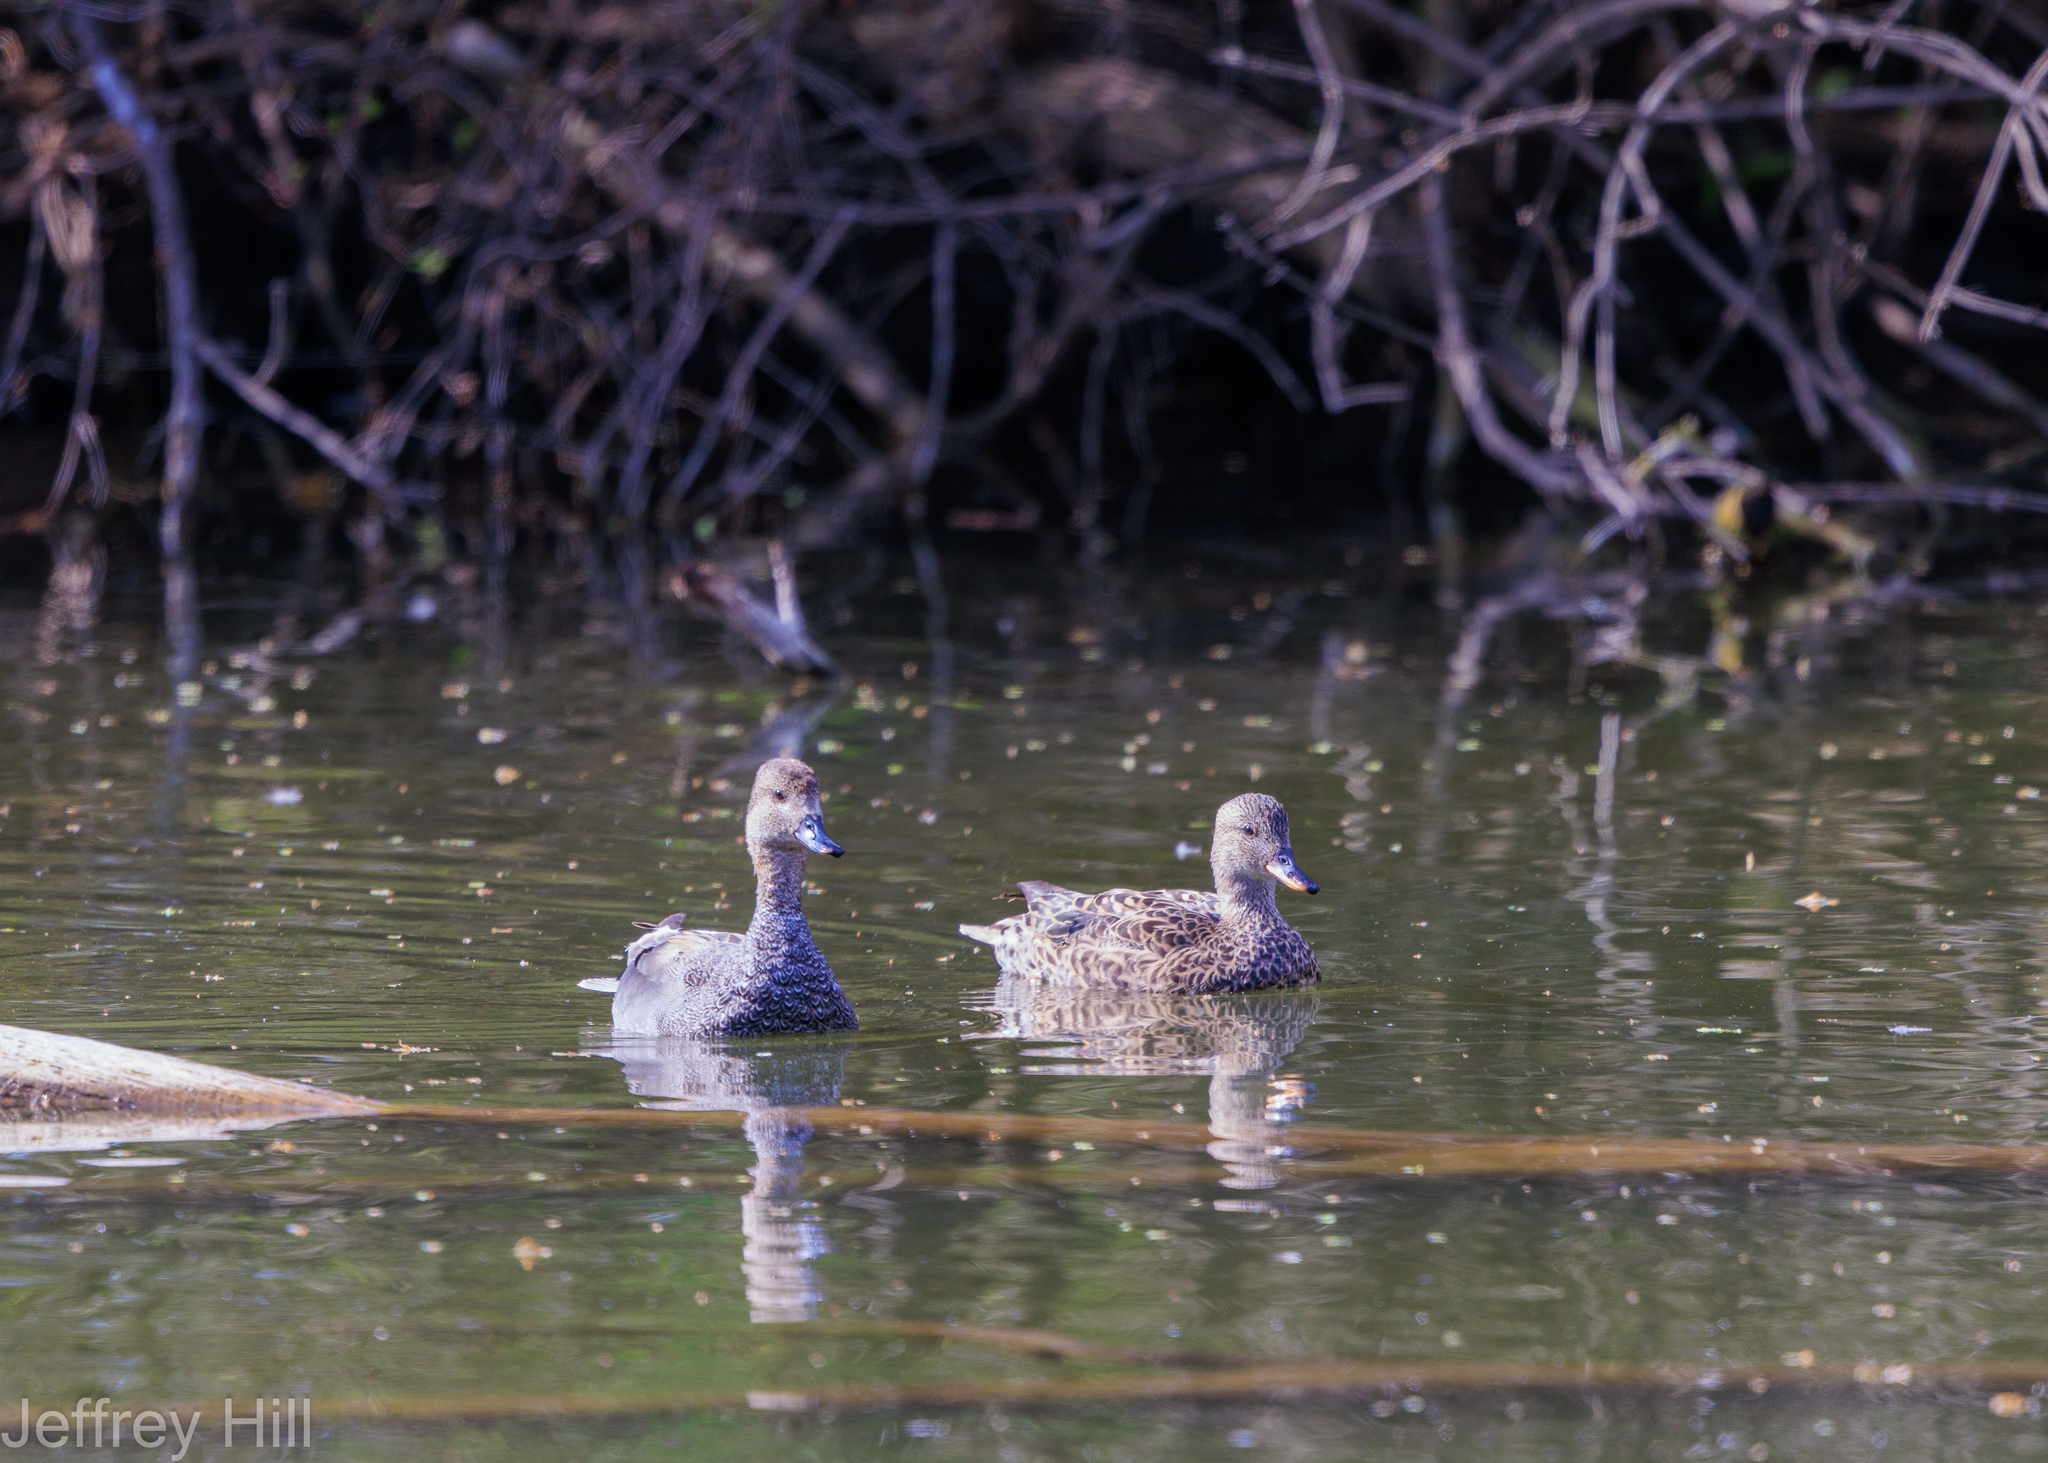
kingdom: Animalia
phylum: Chordata
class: Aves
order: Anseriformes
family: Anatidae
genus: Mareca
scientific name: Mareca strepera
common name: Gadwall
